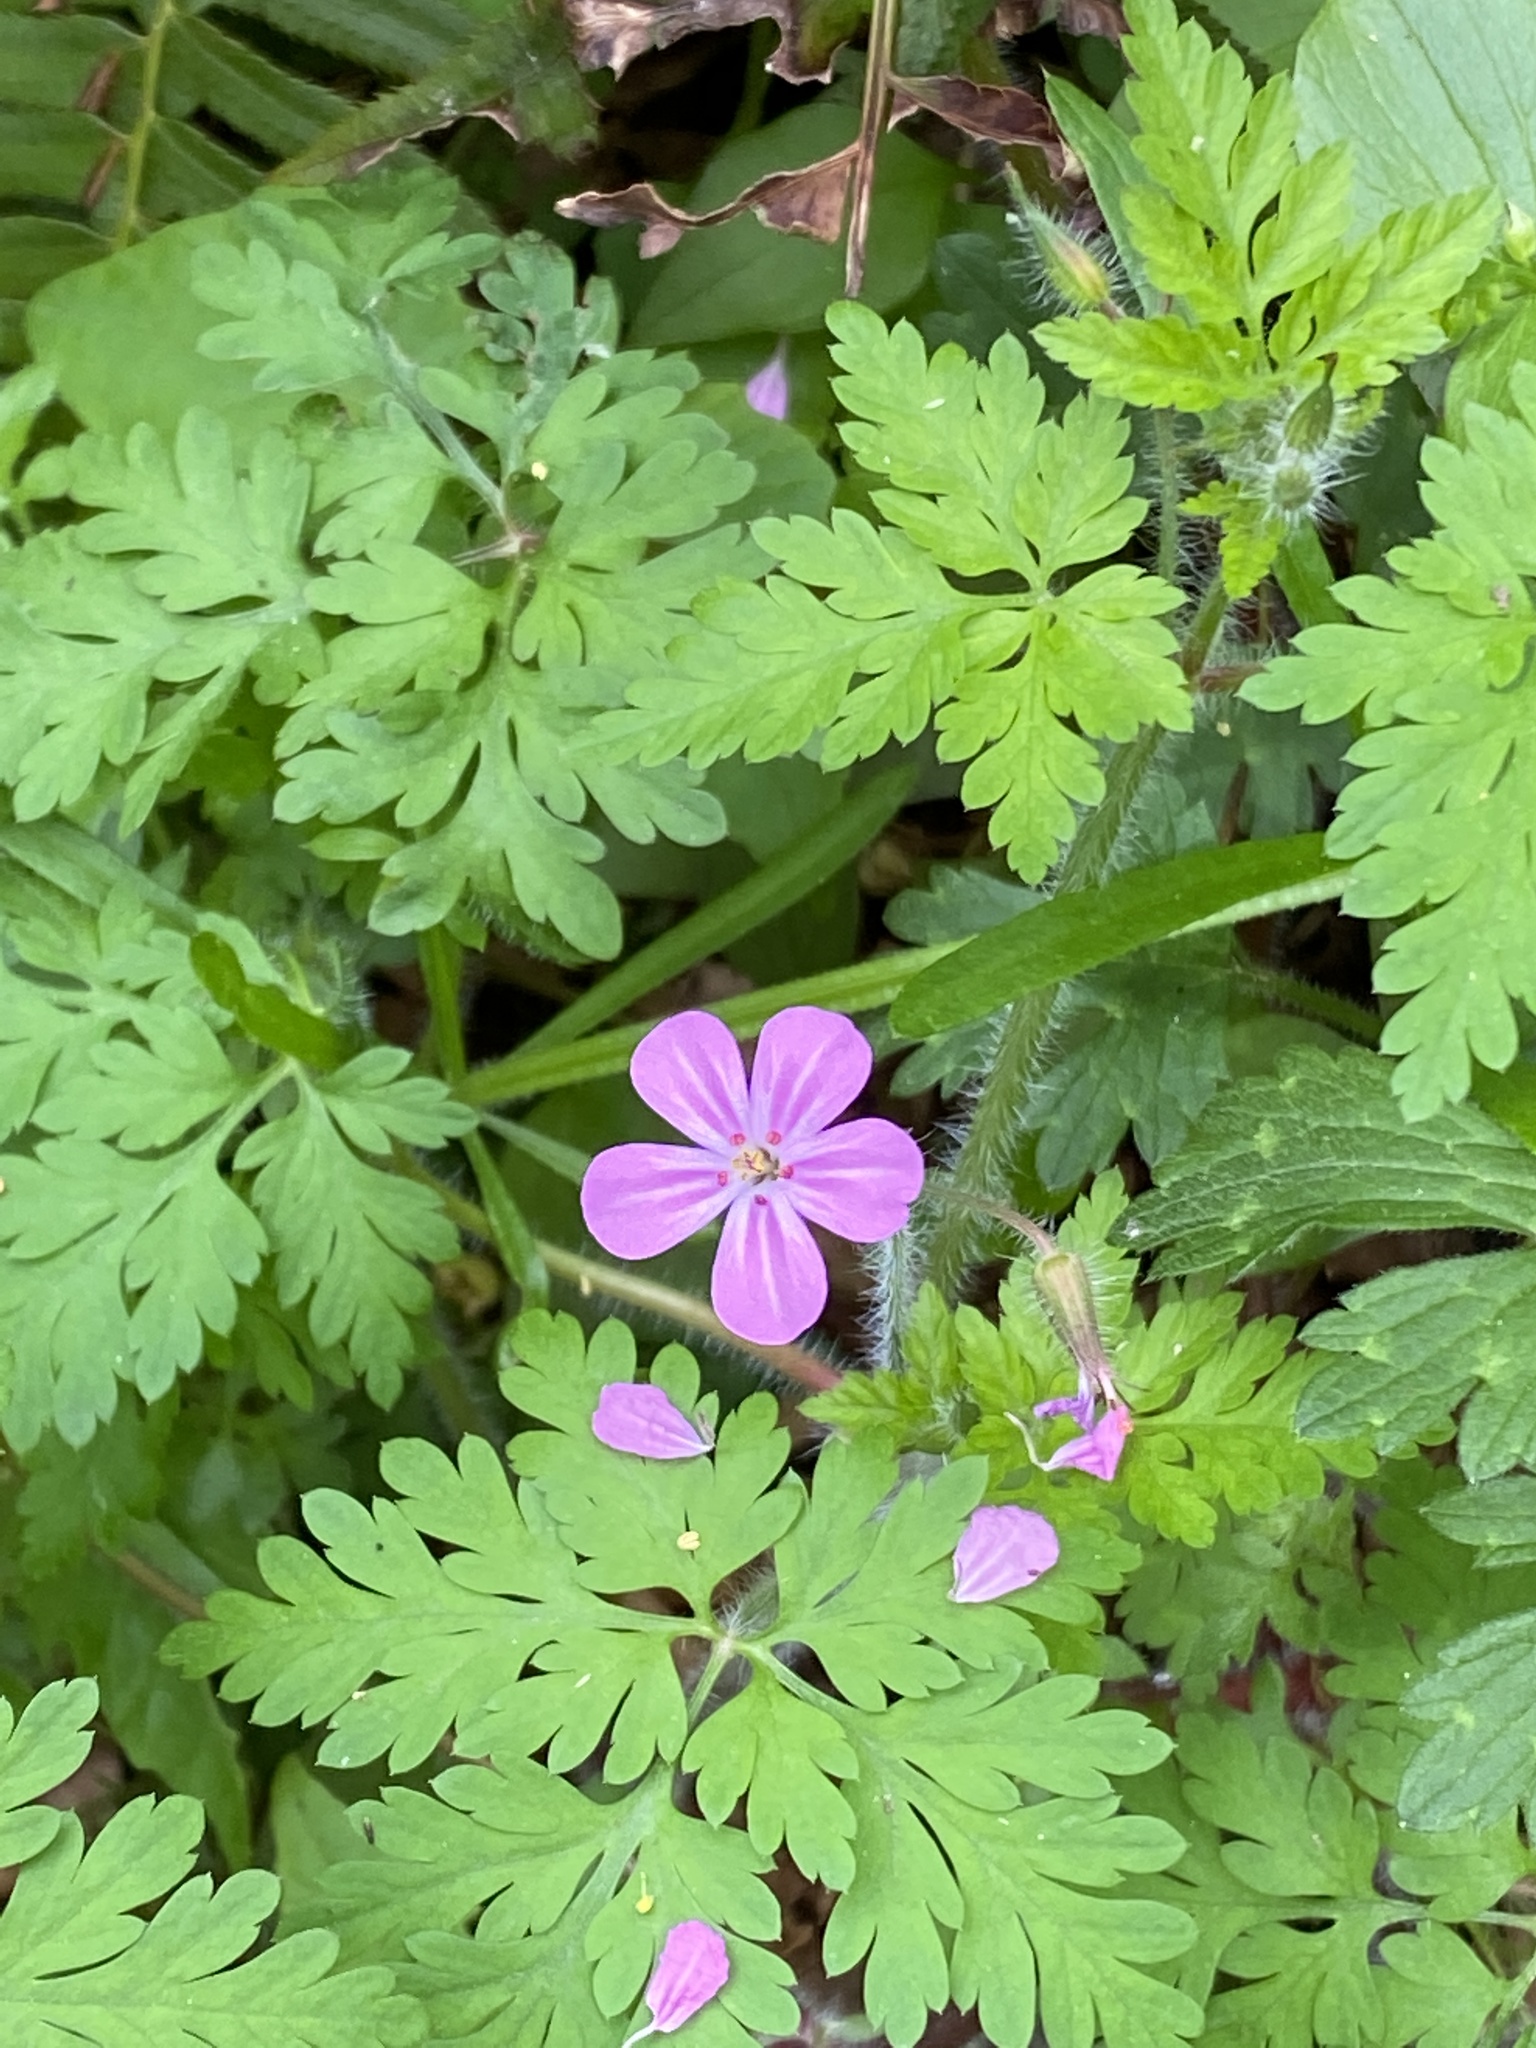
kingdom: Plantae
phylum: Tracheophyta
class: Magnoliopsida
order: Geraniales
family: Geraniaceae
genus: Geranium
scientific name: Geranium robertianum
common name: Herb-robert
